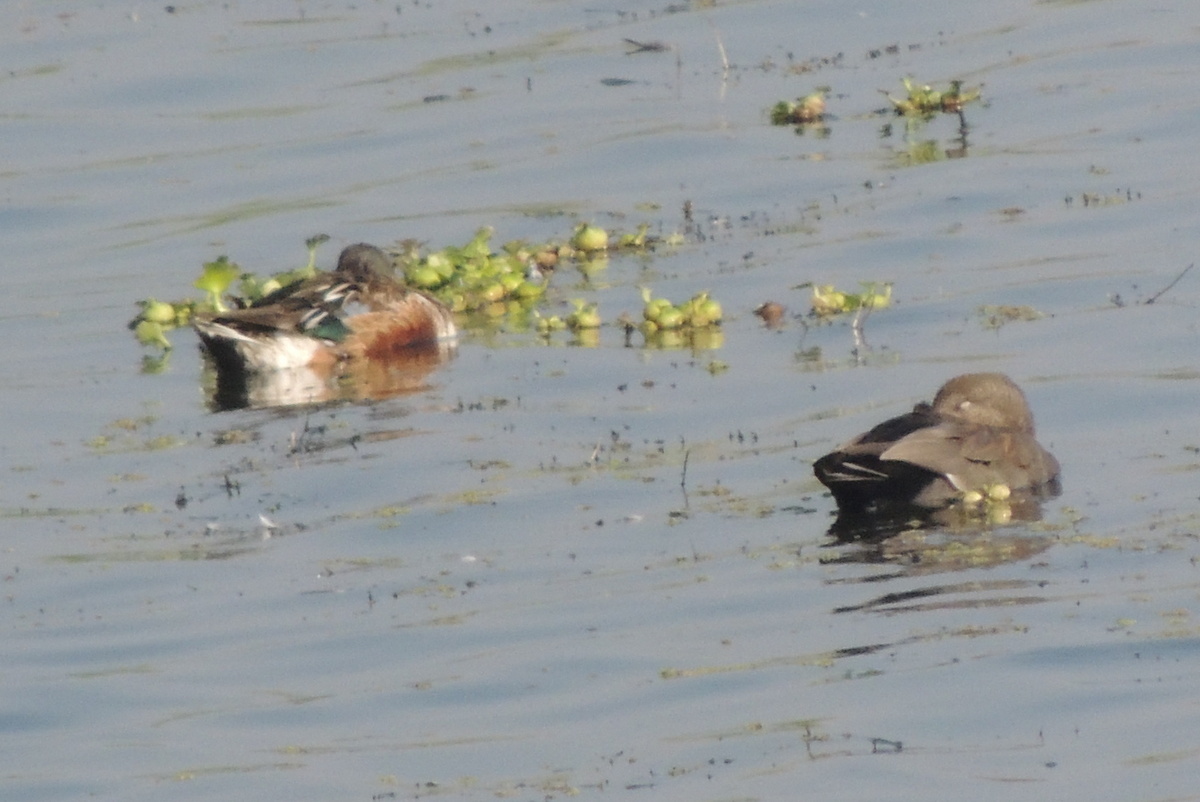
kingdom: Animalia
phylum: Chordata
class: Aves
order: Anseriformes
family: Anatidae
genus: Mareca
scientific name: Mareca strepera
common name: Gadwall
